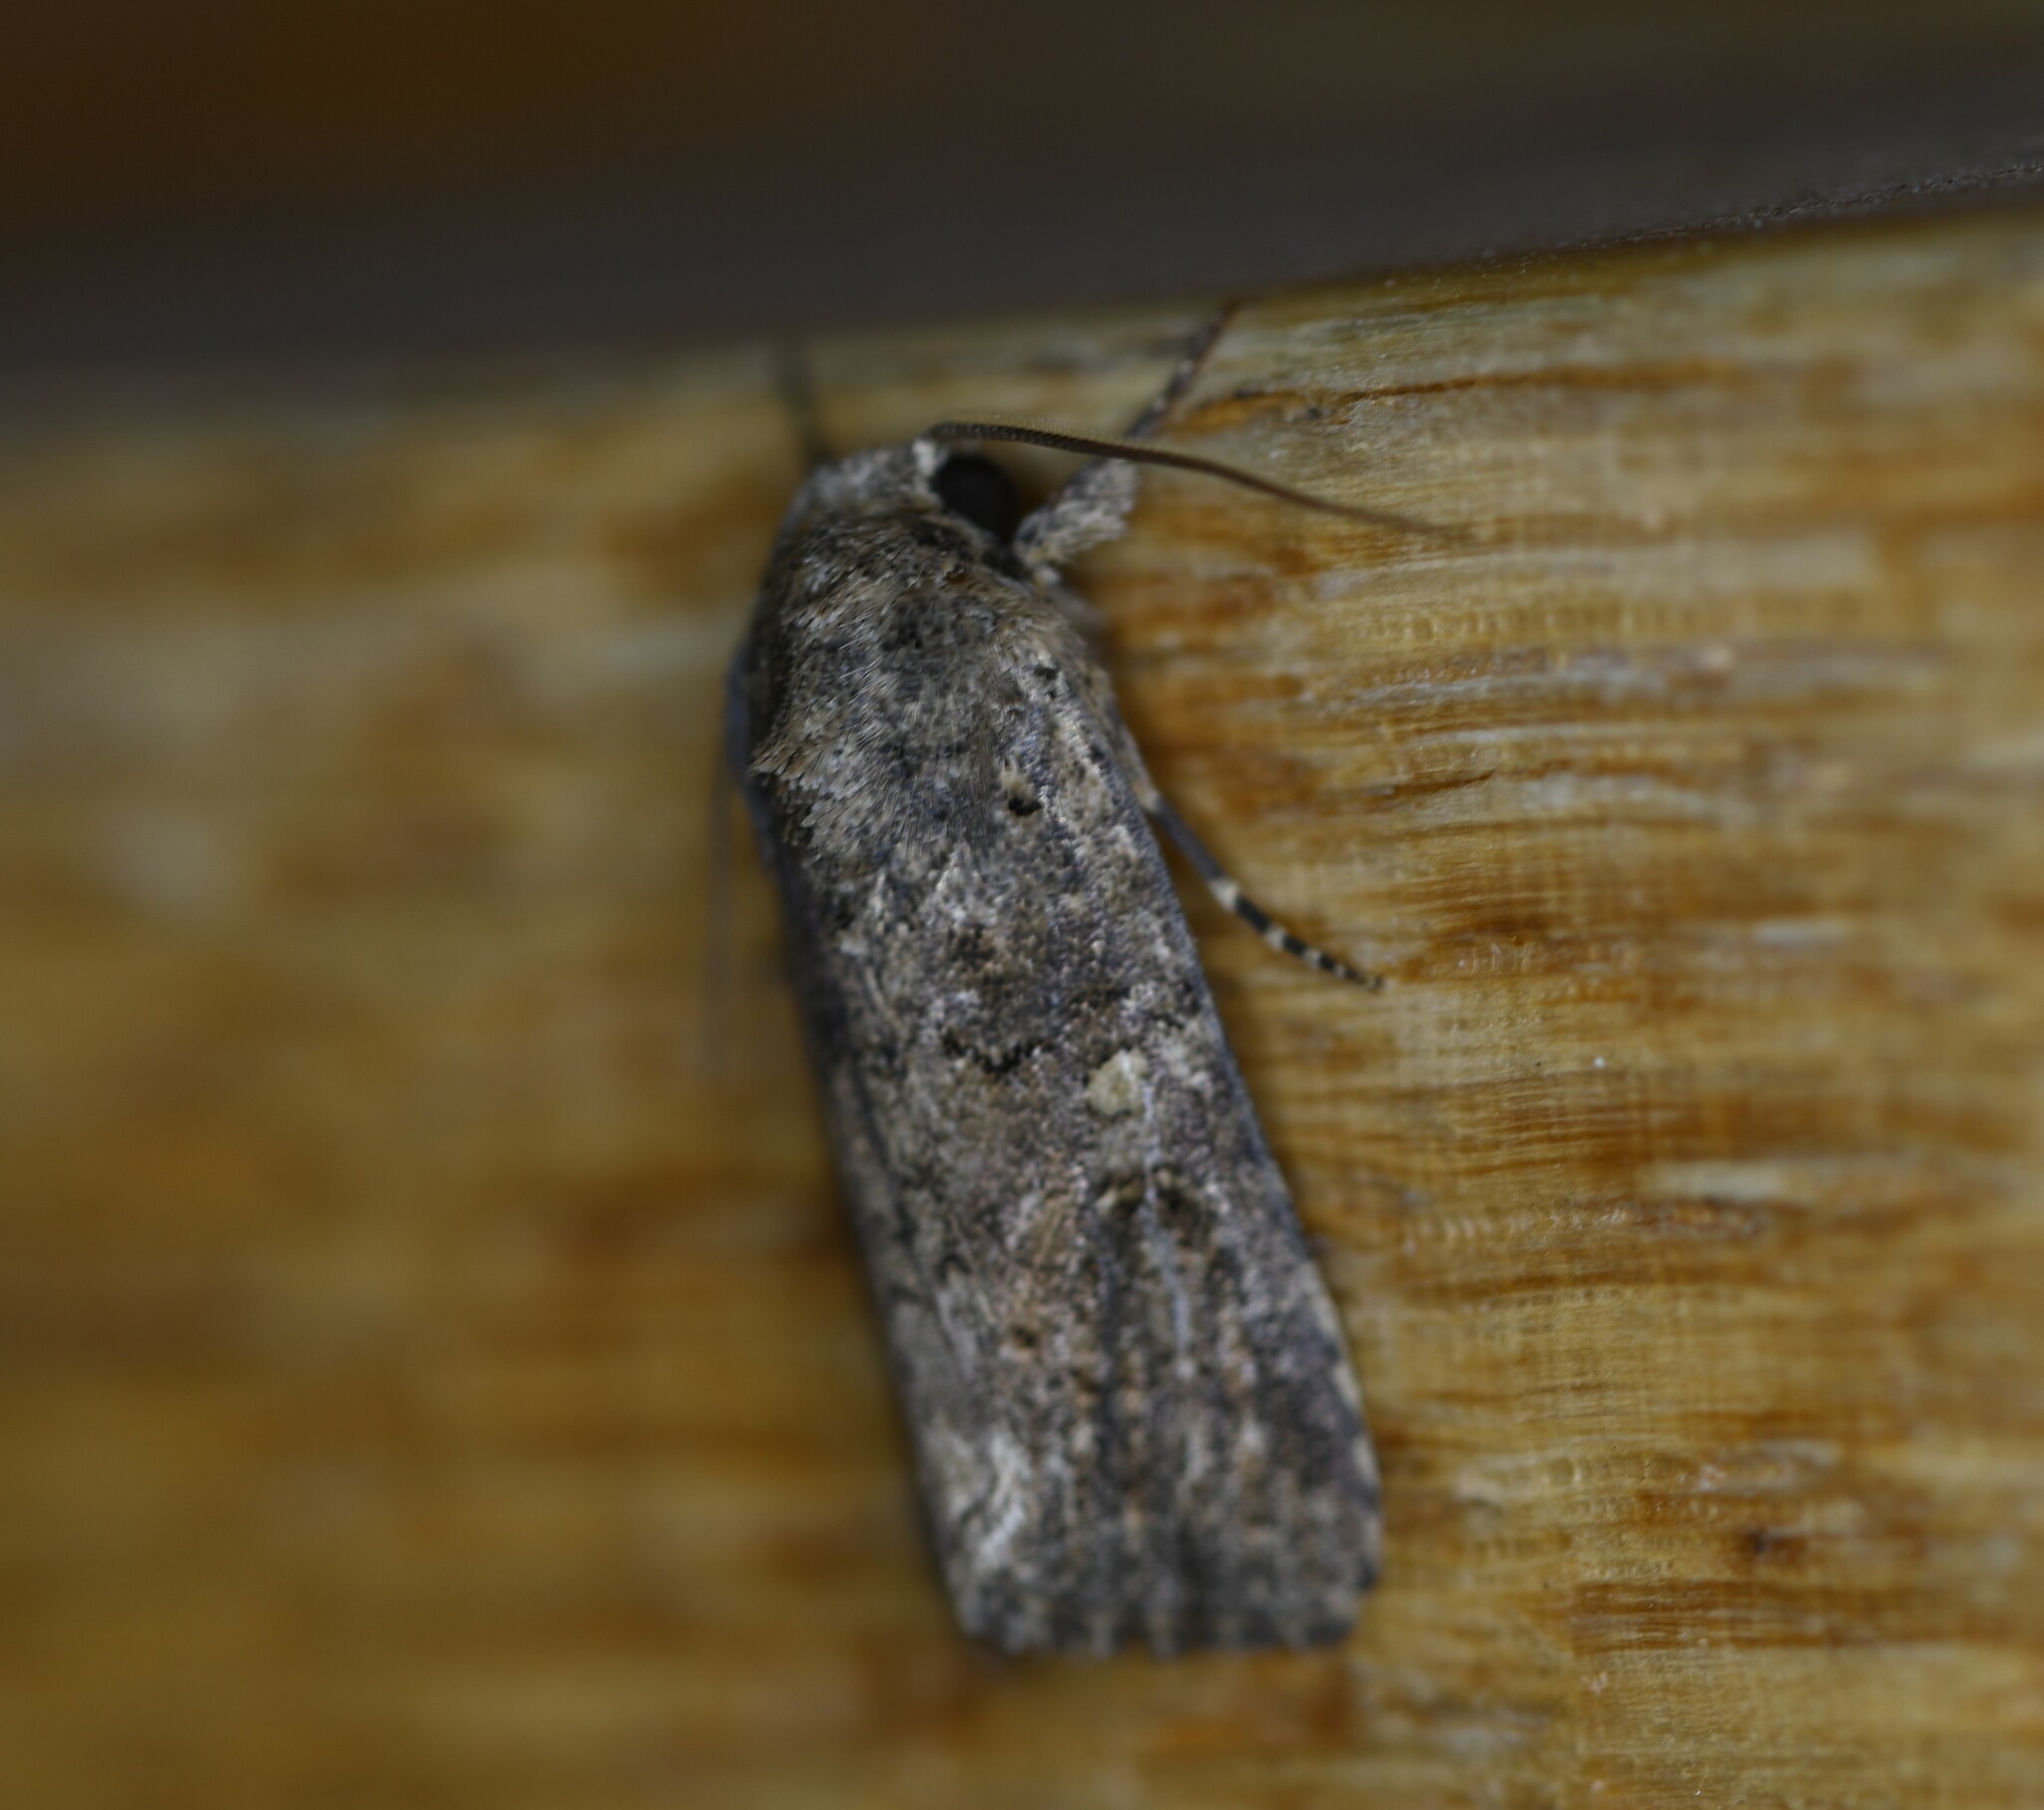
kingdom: Animalia
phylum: Arthropoda
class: Insecta
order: Lepidoptera
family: Noctuidae
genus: Spodoptera
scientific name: Spodoptera exigua
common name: Beet armyworm
